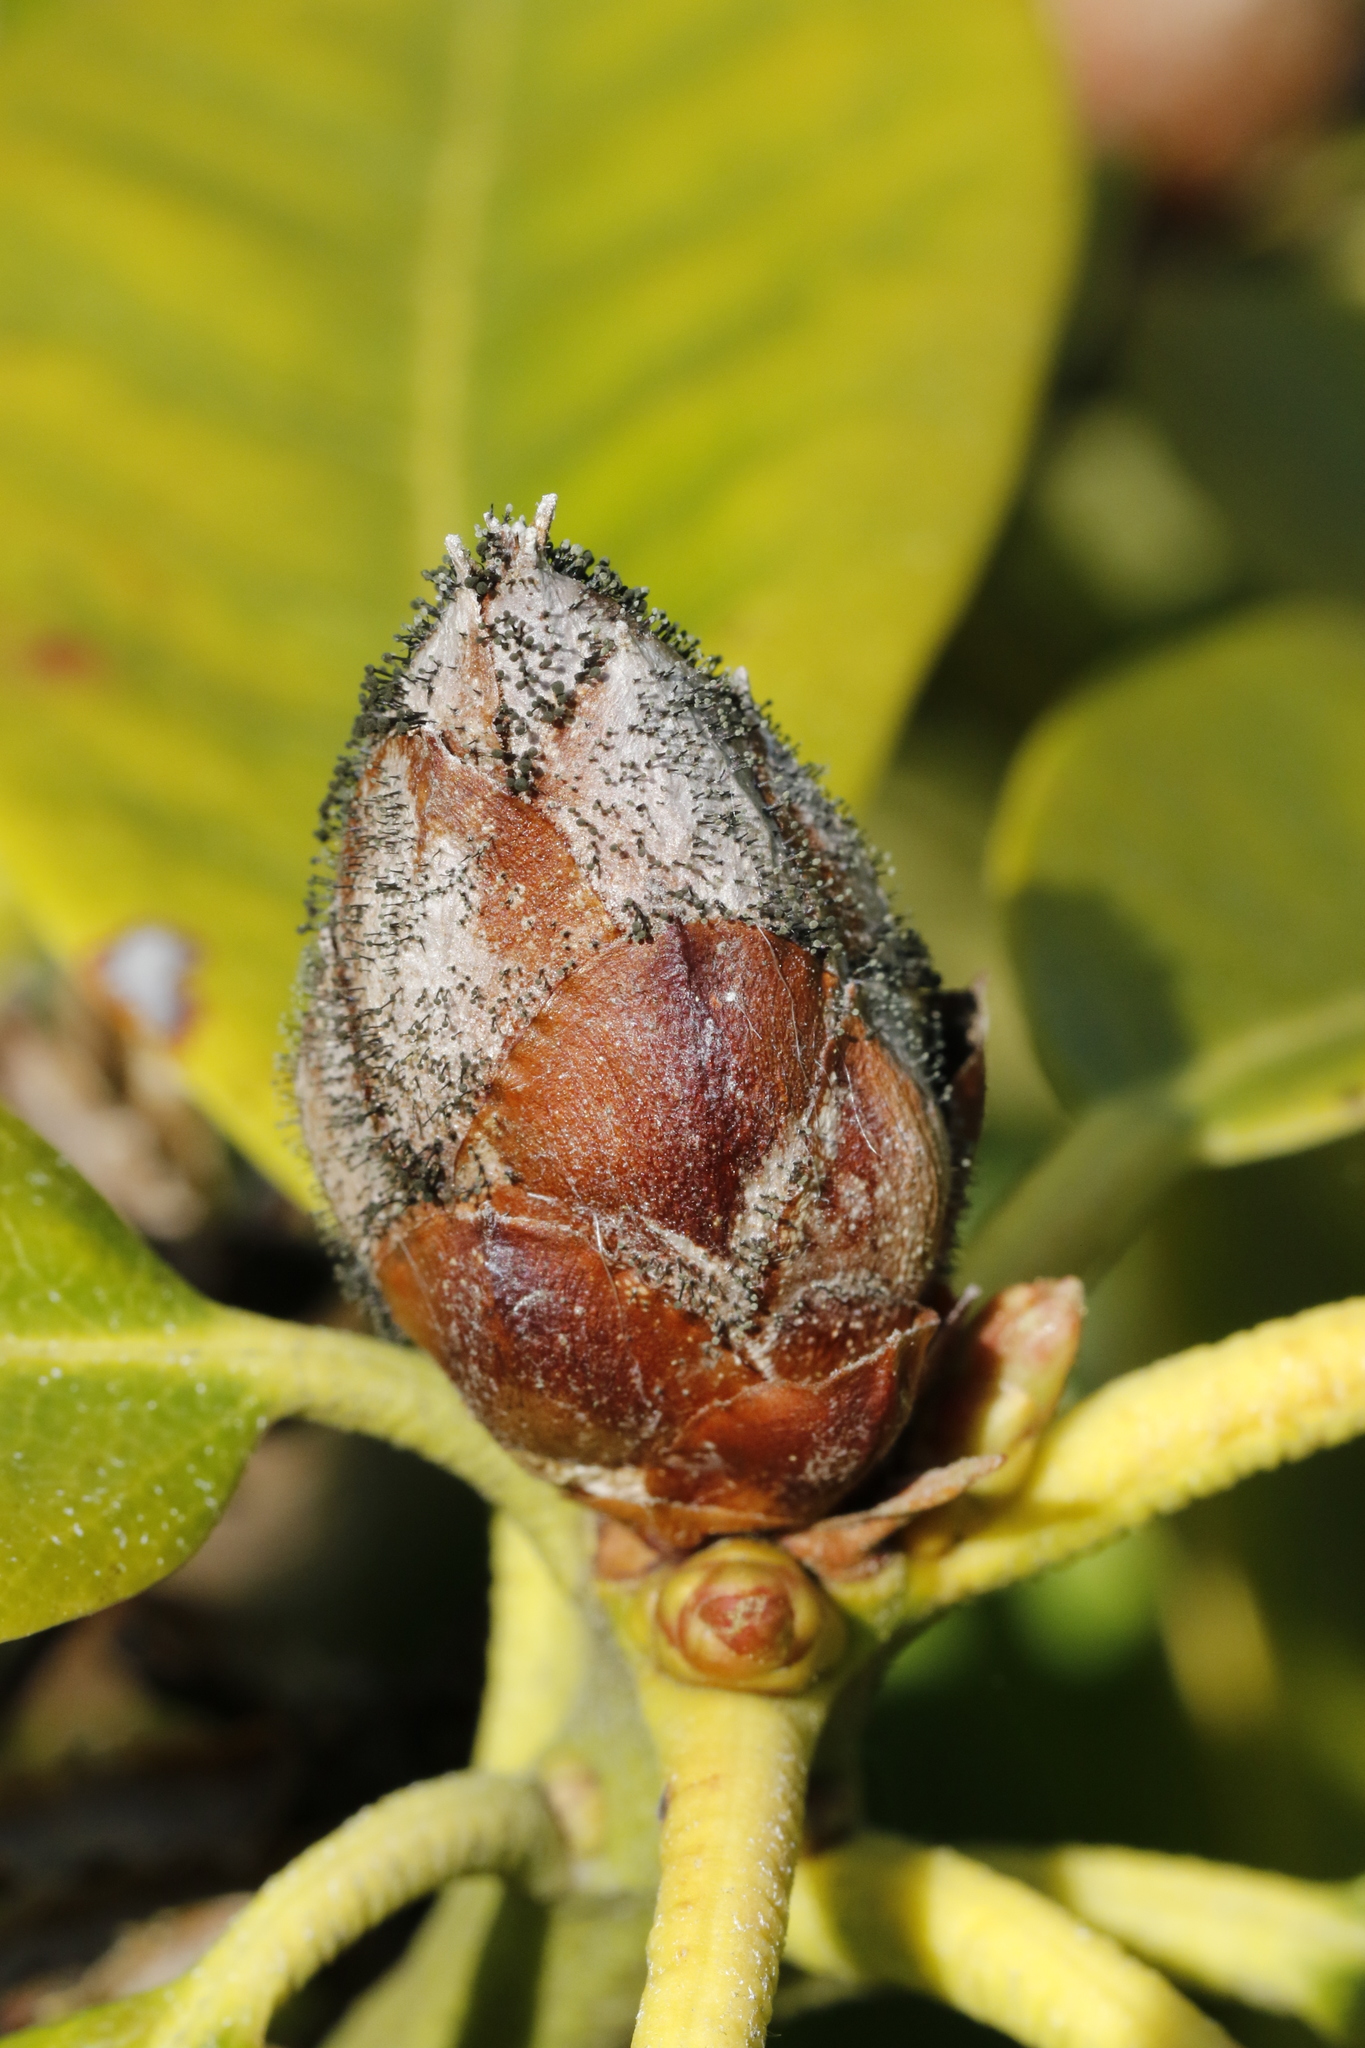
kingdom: Fungi
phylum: Ascomycota
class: Dothideomycetes
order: Pleosporales
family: Melanommataceae
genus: Seifertia
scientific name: Seifertia azaleae
